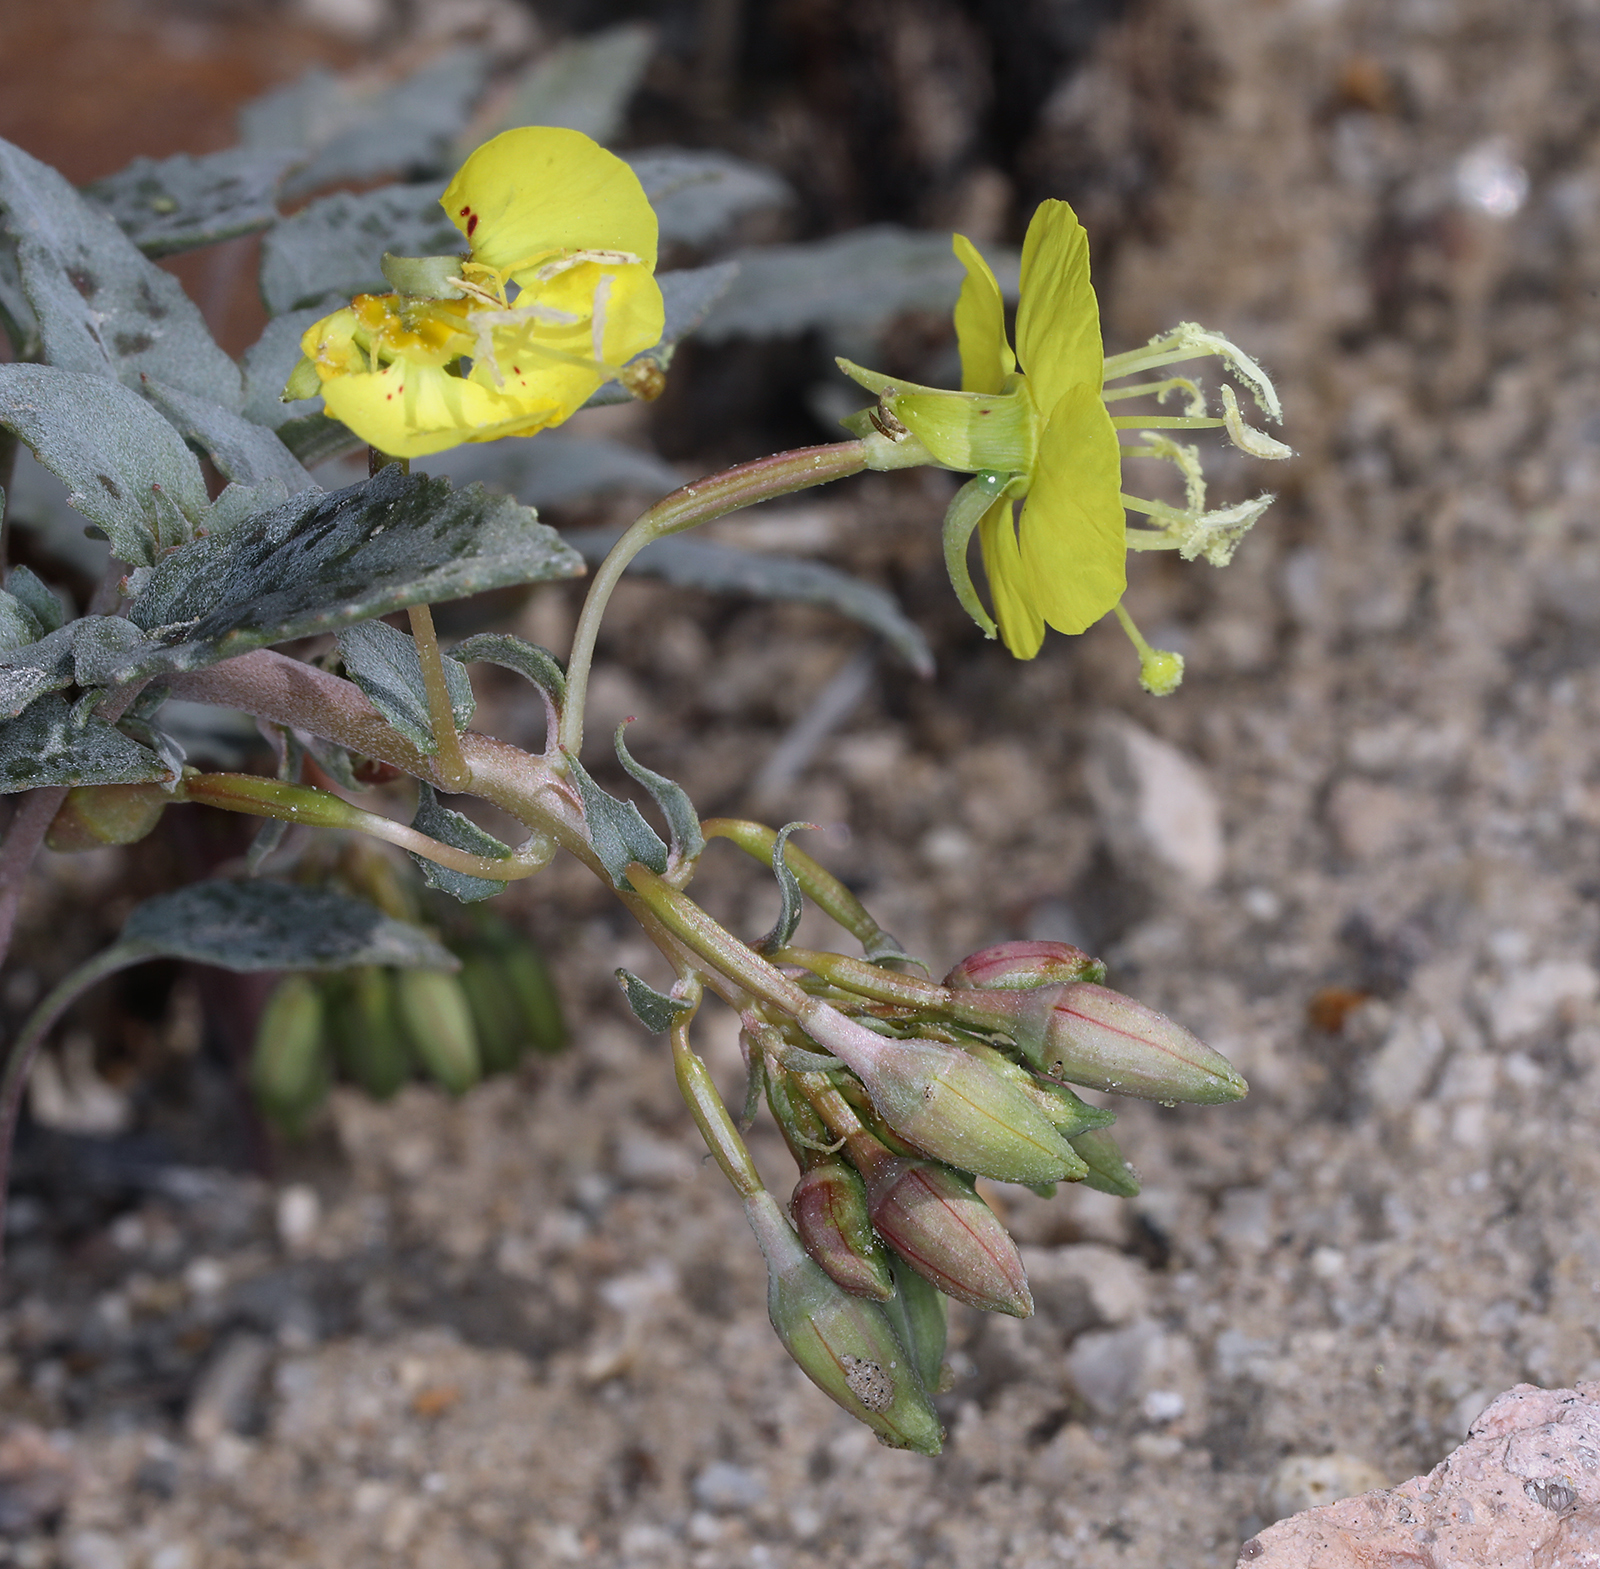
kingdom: Plantae
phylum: Tracheophyta
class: Magnoliopsida
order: Myrtales
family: Onagraceae
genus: Chylismia
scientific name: Chylismia claviformis
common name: Browneyes
